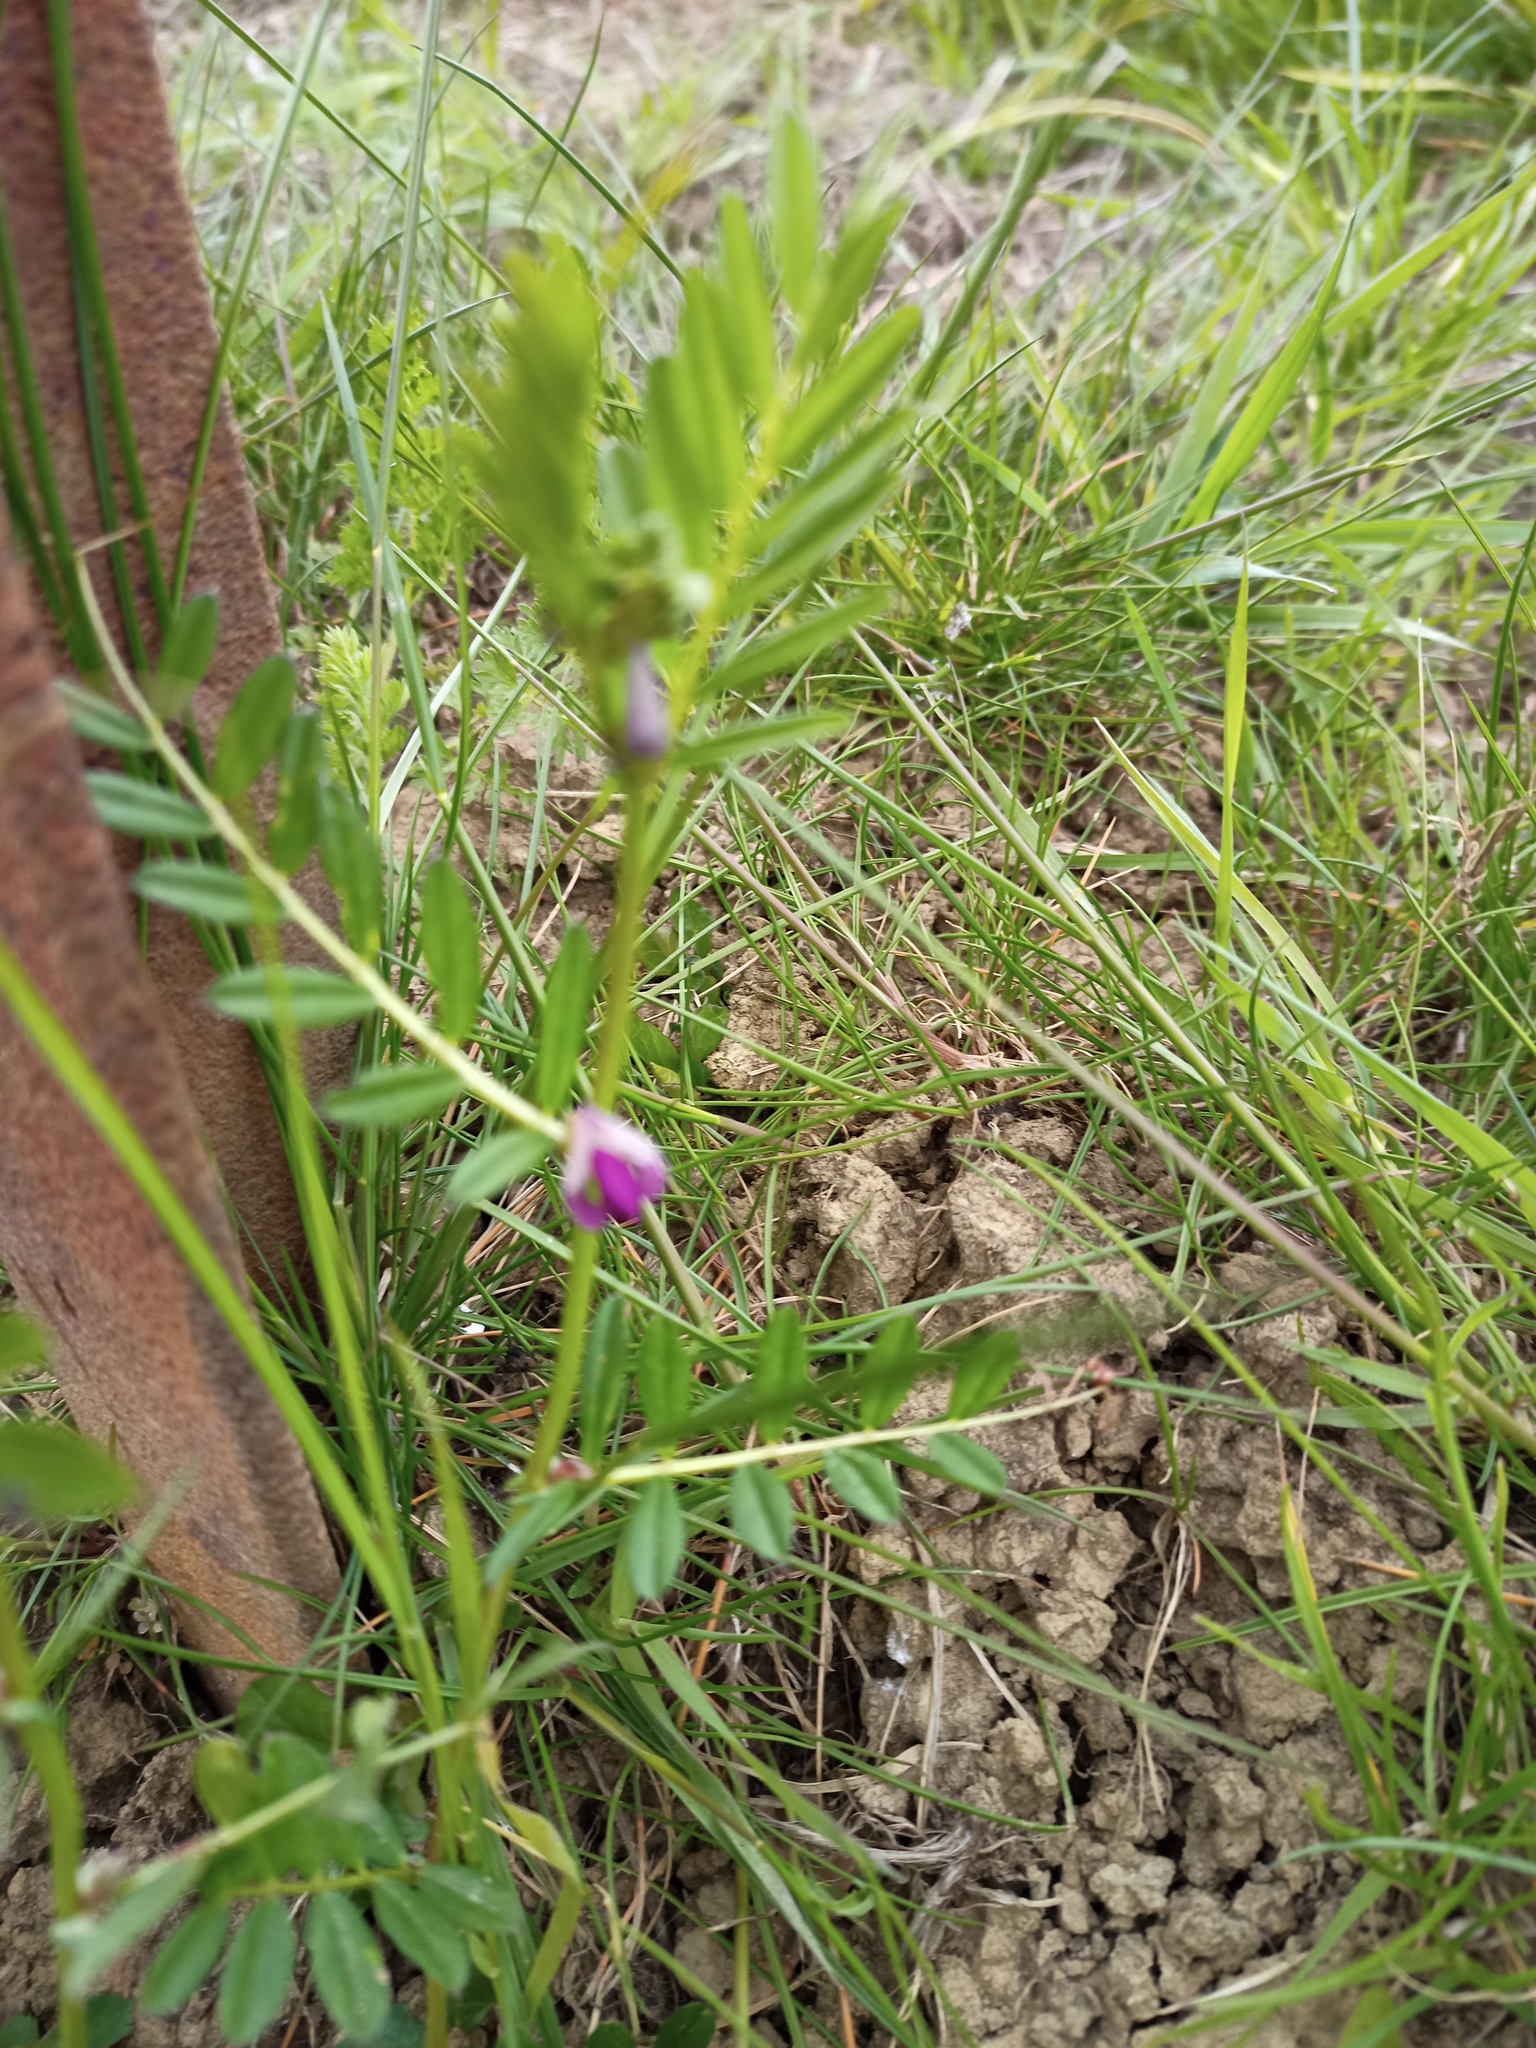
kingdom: Plantae
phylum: Tracheophyta
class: Magnoliopsida
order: Fabales
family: Fabaceae
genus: Vicia
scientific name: Vicia sativa
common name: Garden vetch
